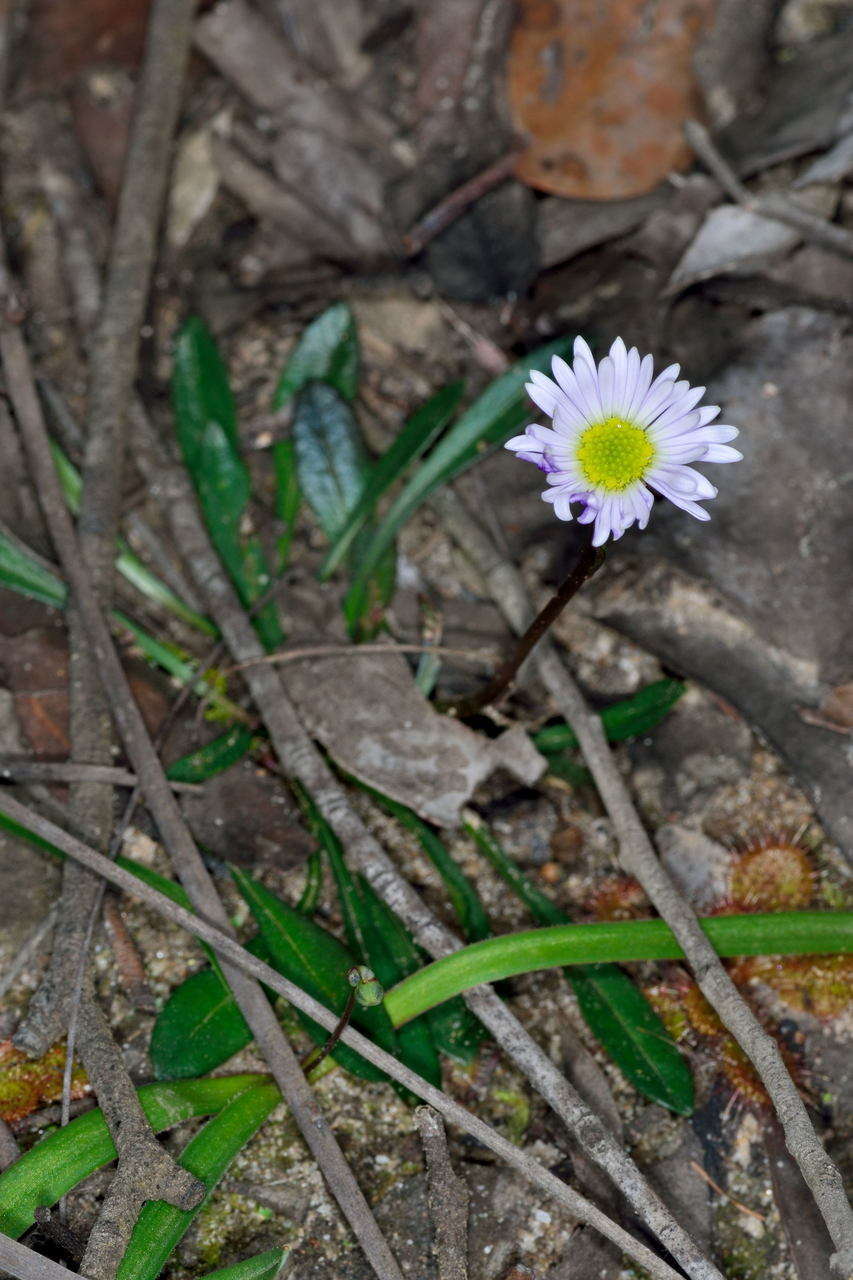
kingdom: Plantae
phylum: Tracheophyta
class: Magnoliopsida
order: Asterales
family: Asteraceae
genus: Allittia
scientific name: Allittia uliginosa
